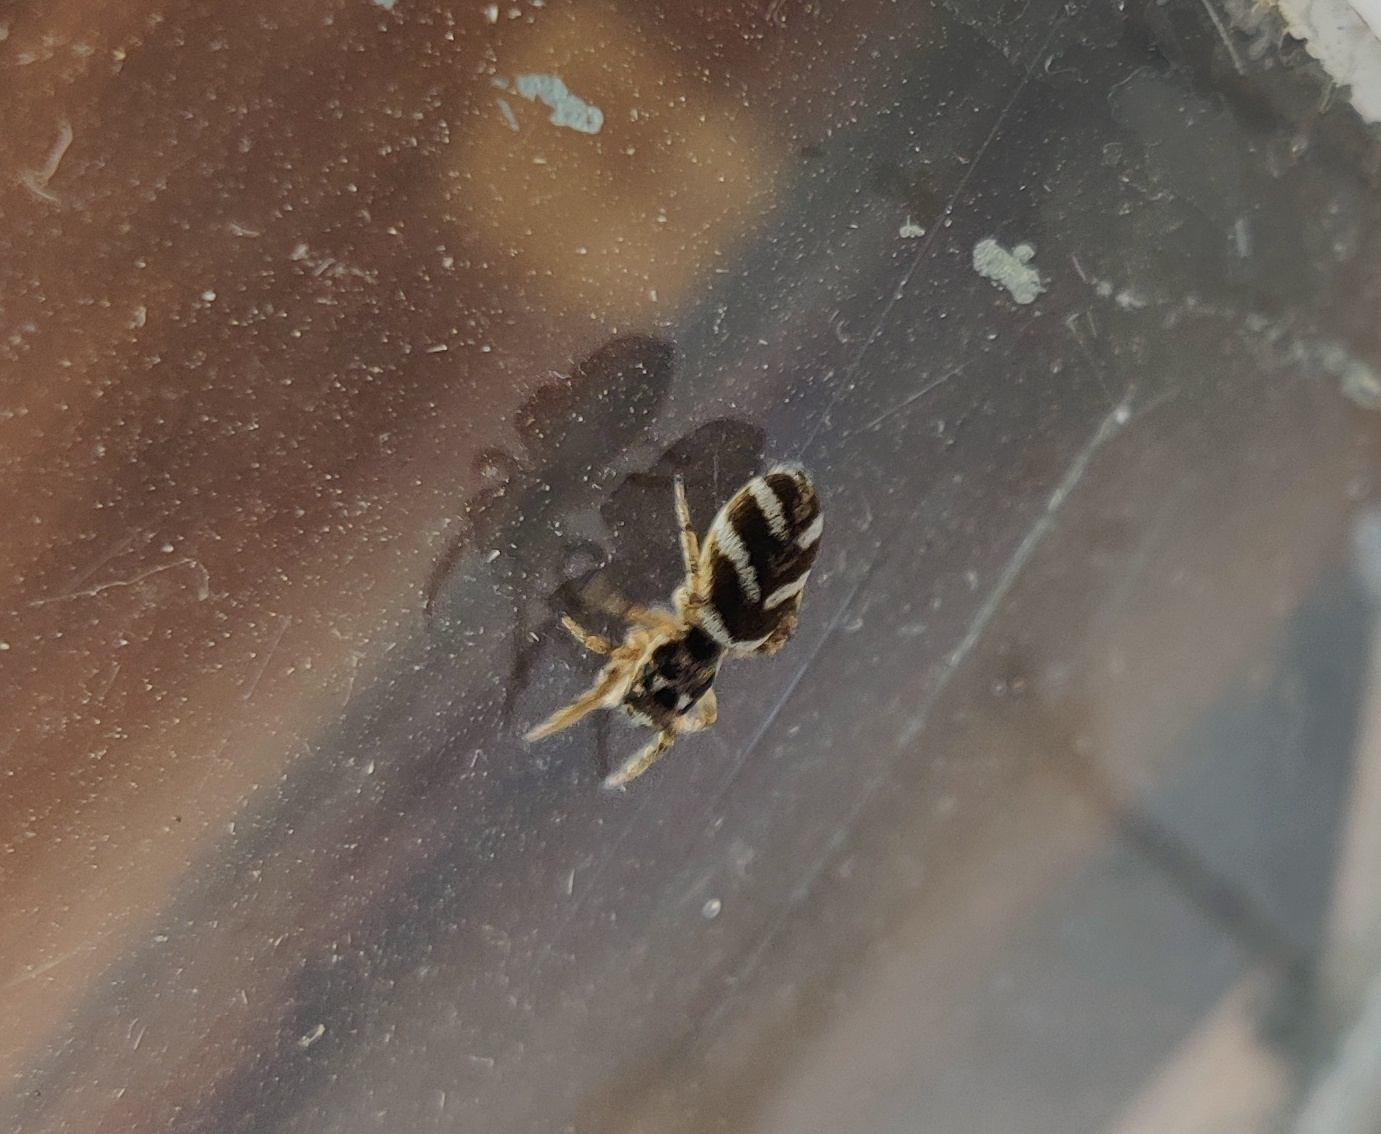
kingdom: Animalia
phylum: Arthropoda
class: Arachnida
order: Araneae
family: Salticidae
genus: Salticus
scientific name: Salticus scenicus
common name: Zebra jumper
